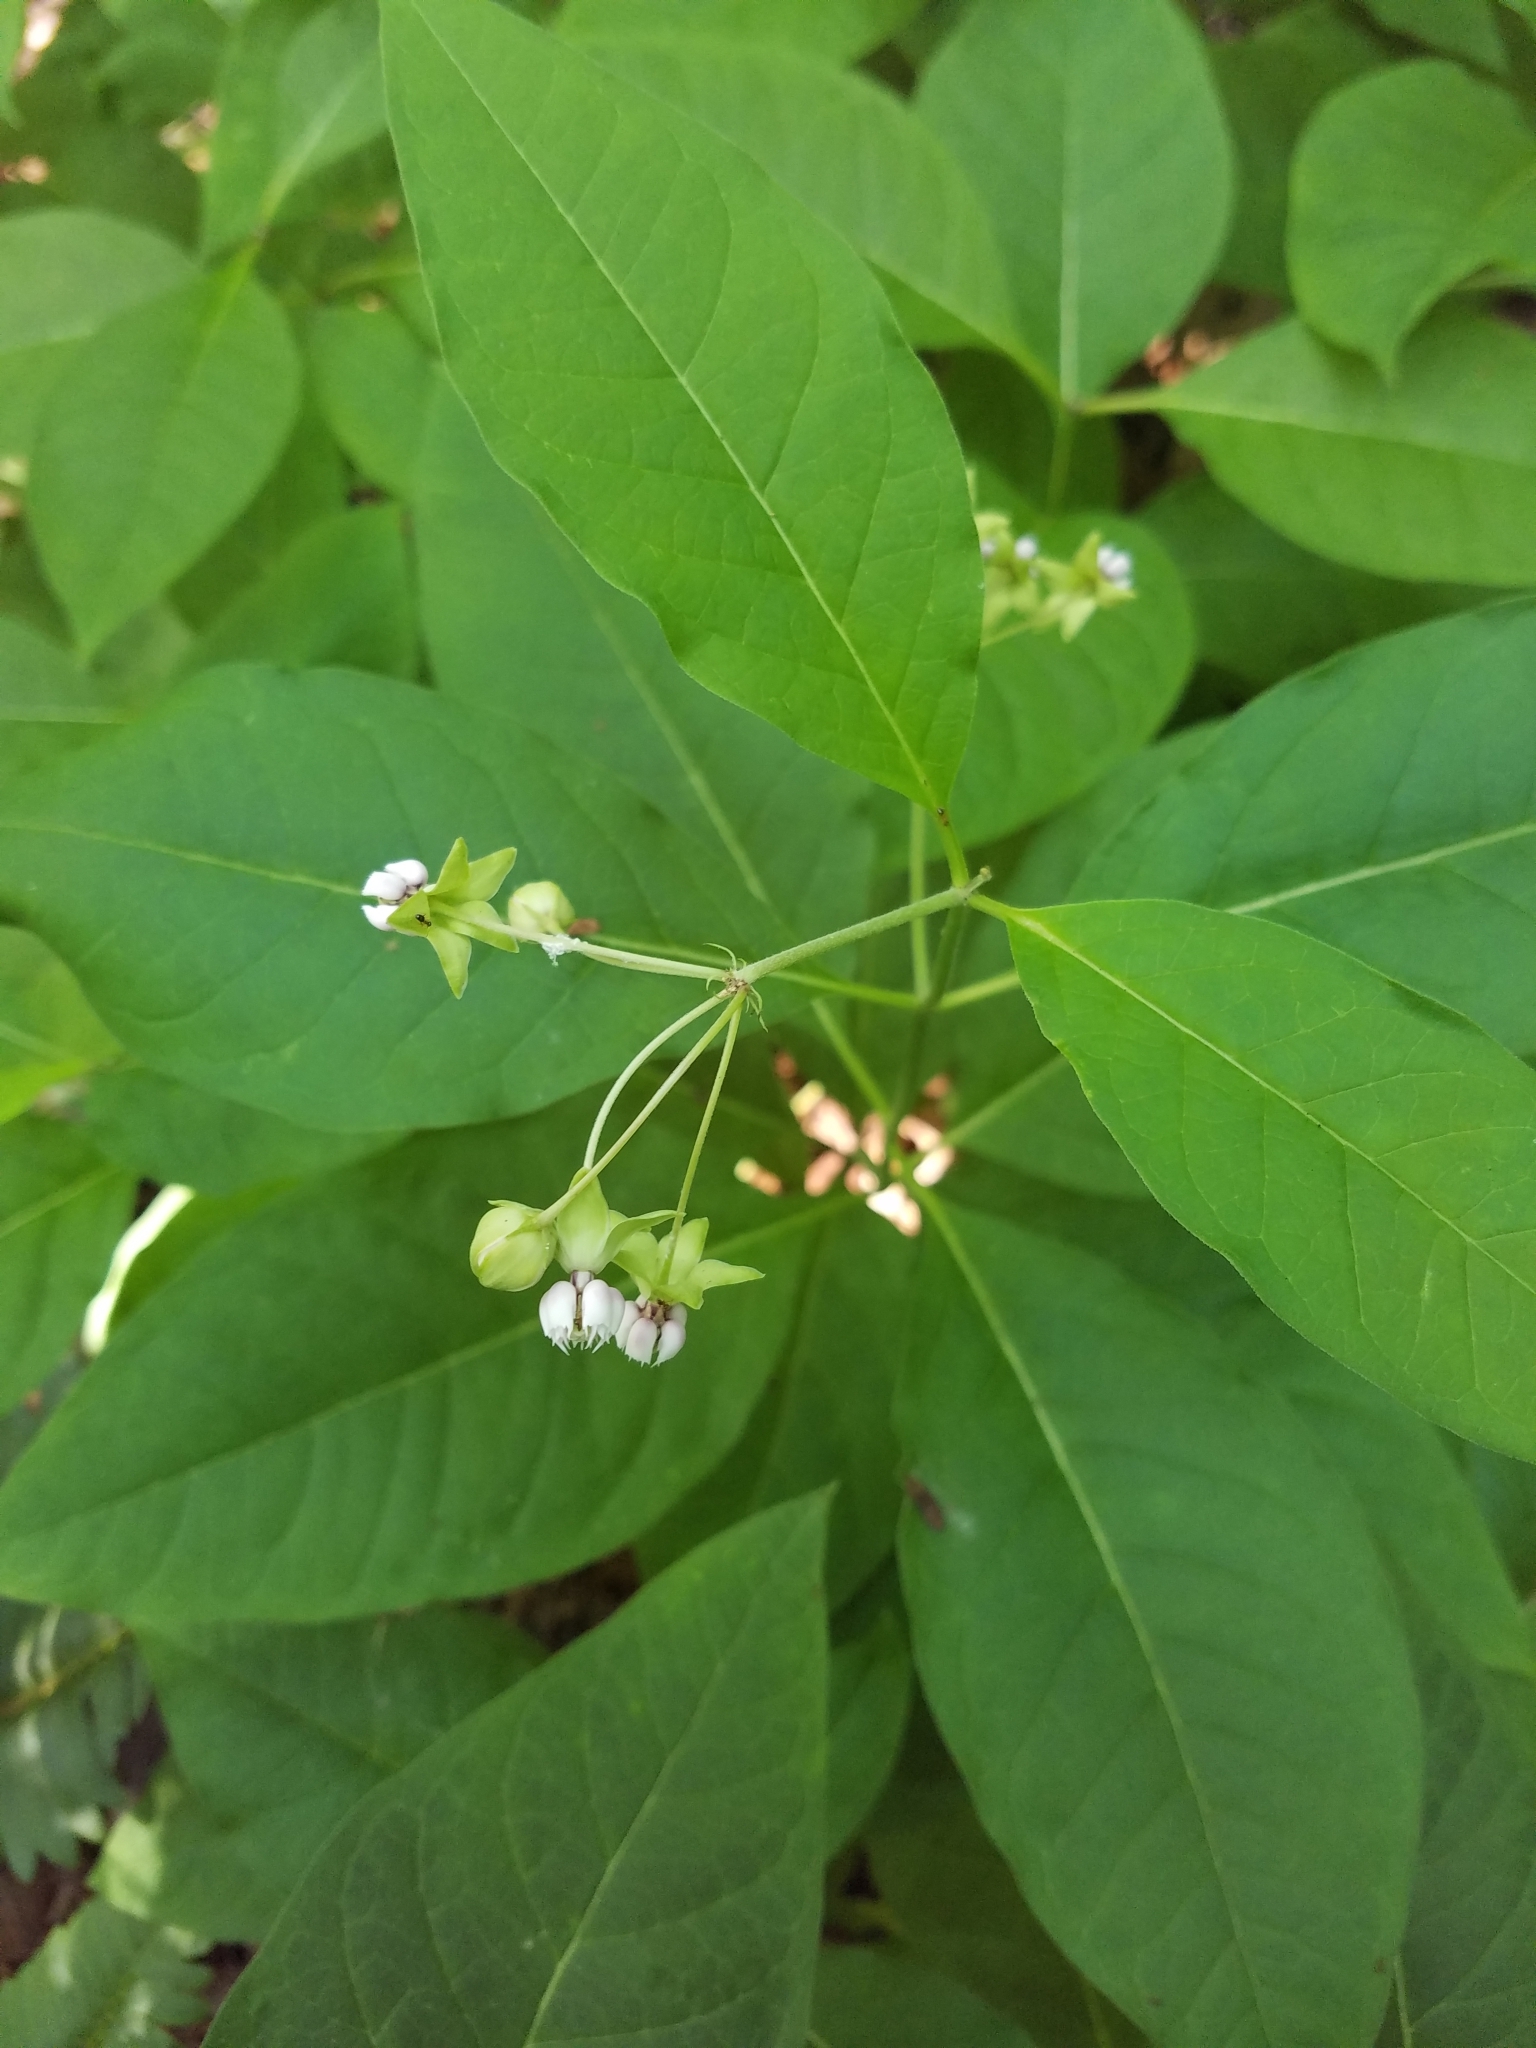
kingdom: Plantae
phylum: Tracheophyta
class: Magnoliopsida
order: Gentianales
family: Apocynaceae
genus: Asclepias
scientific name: Asclepias exaltata
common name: Poke milkweed
